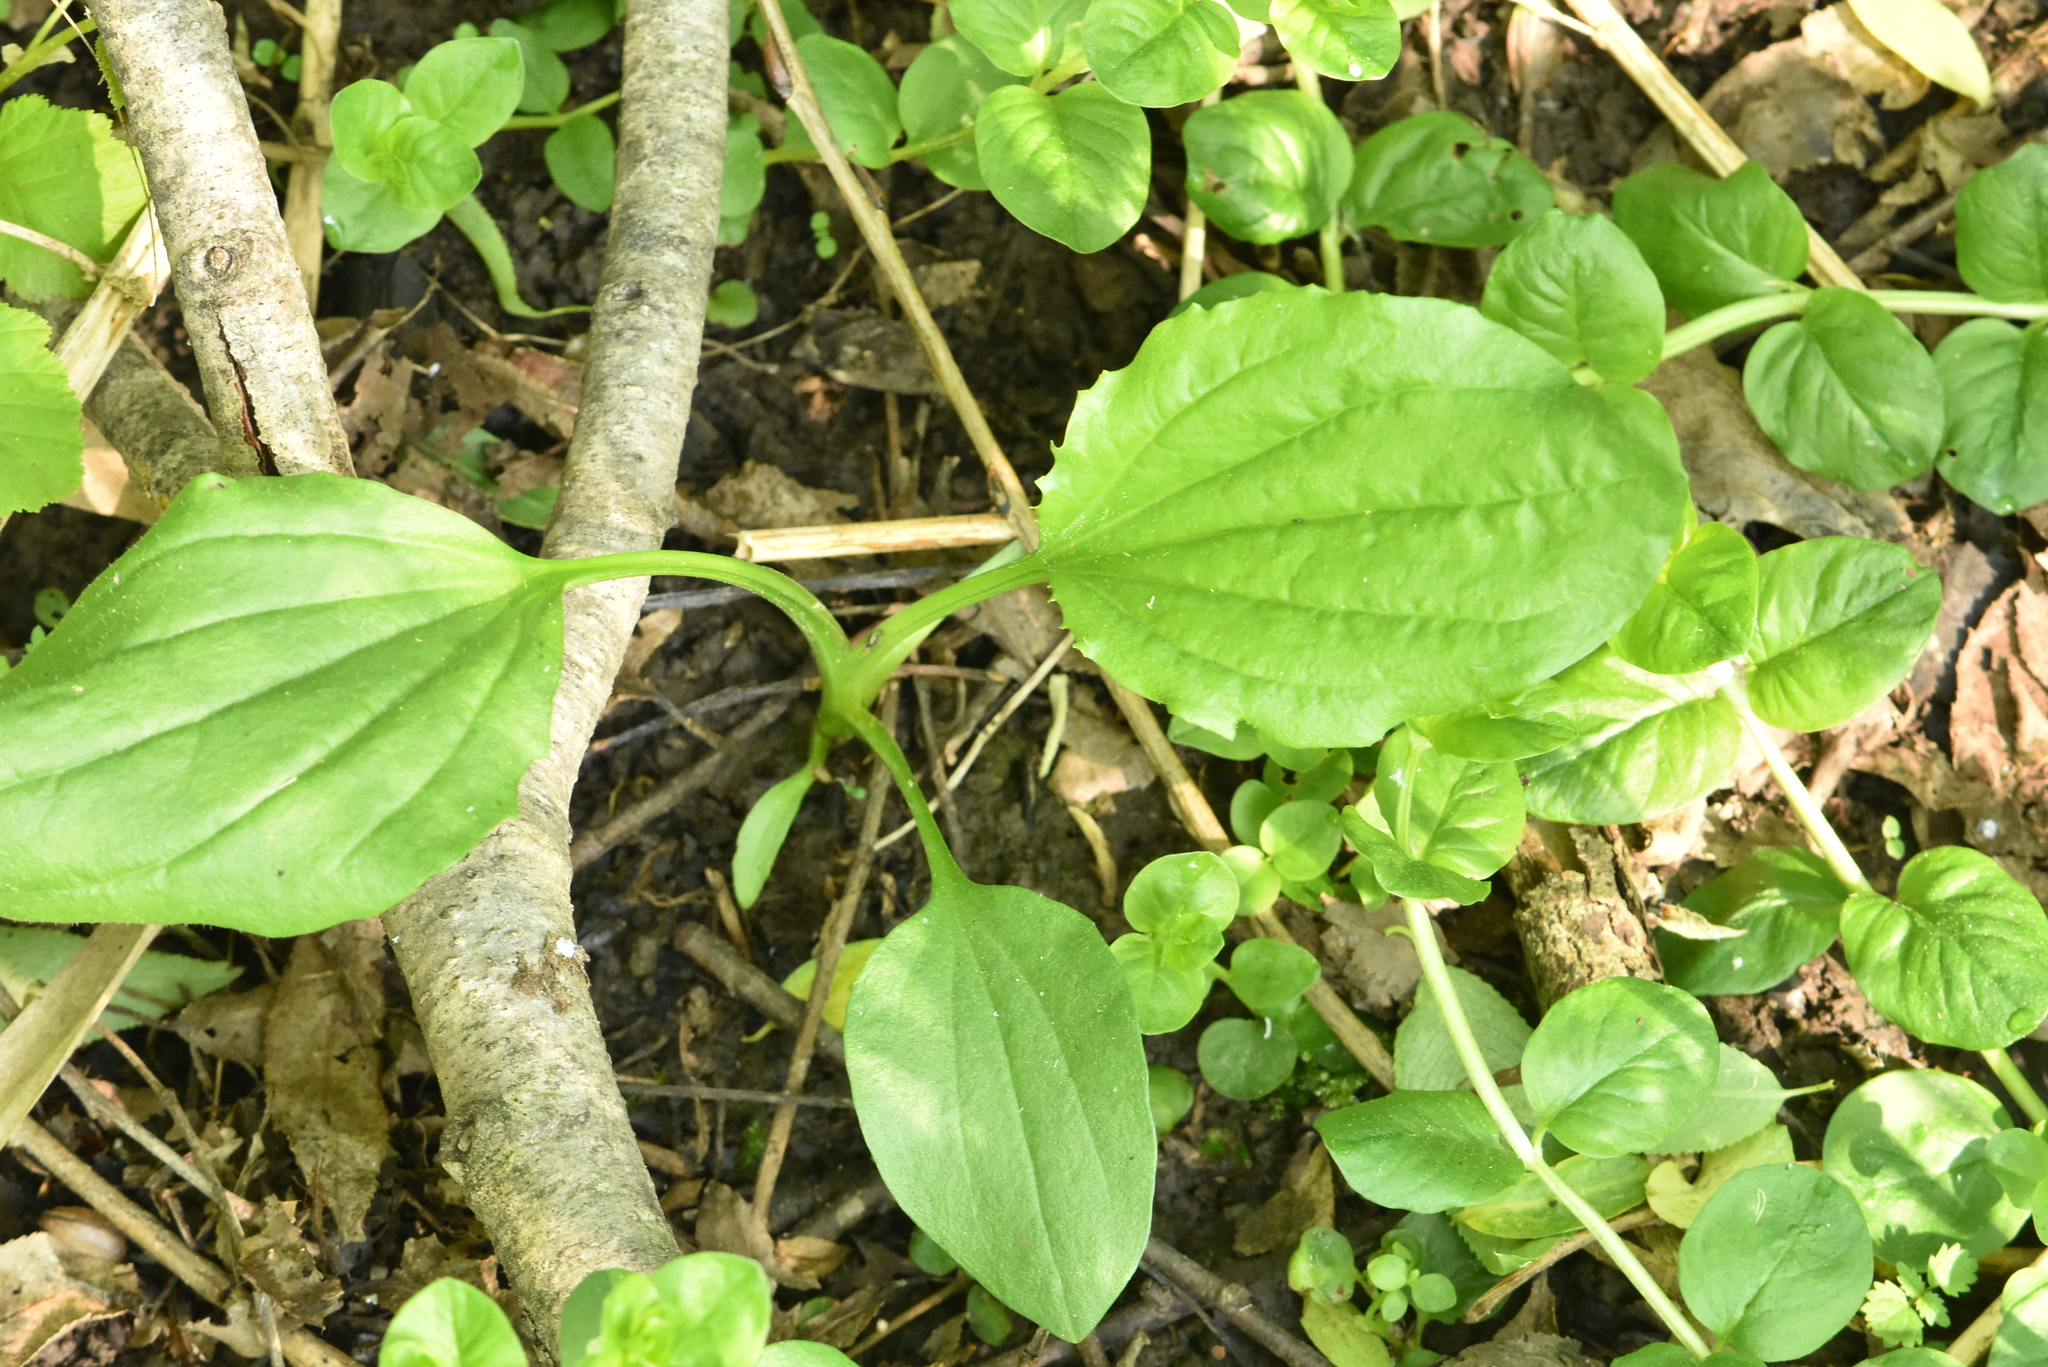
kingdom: Plantae
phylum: Tracheophyta
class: Magnoliopsida
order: Lamiales
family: Plantaginaceae
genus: Plantago
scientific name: Plantago major
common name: Common plantain
